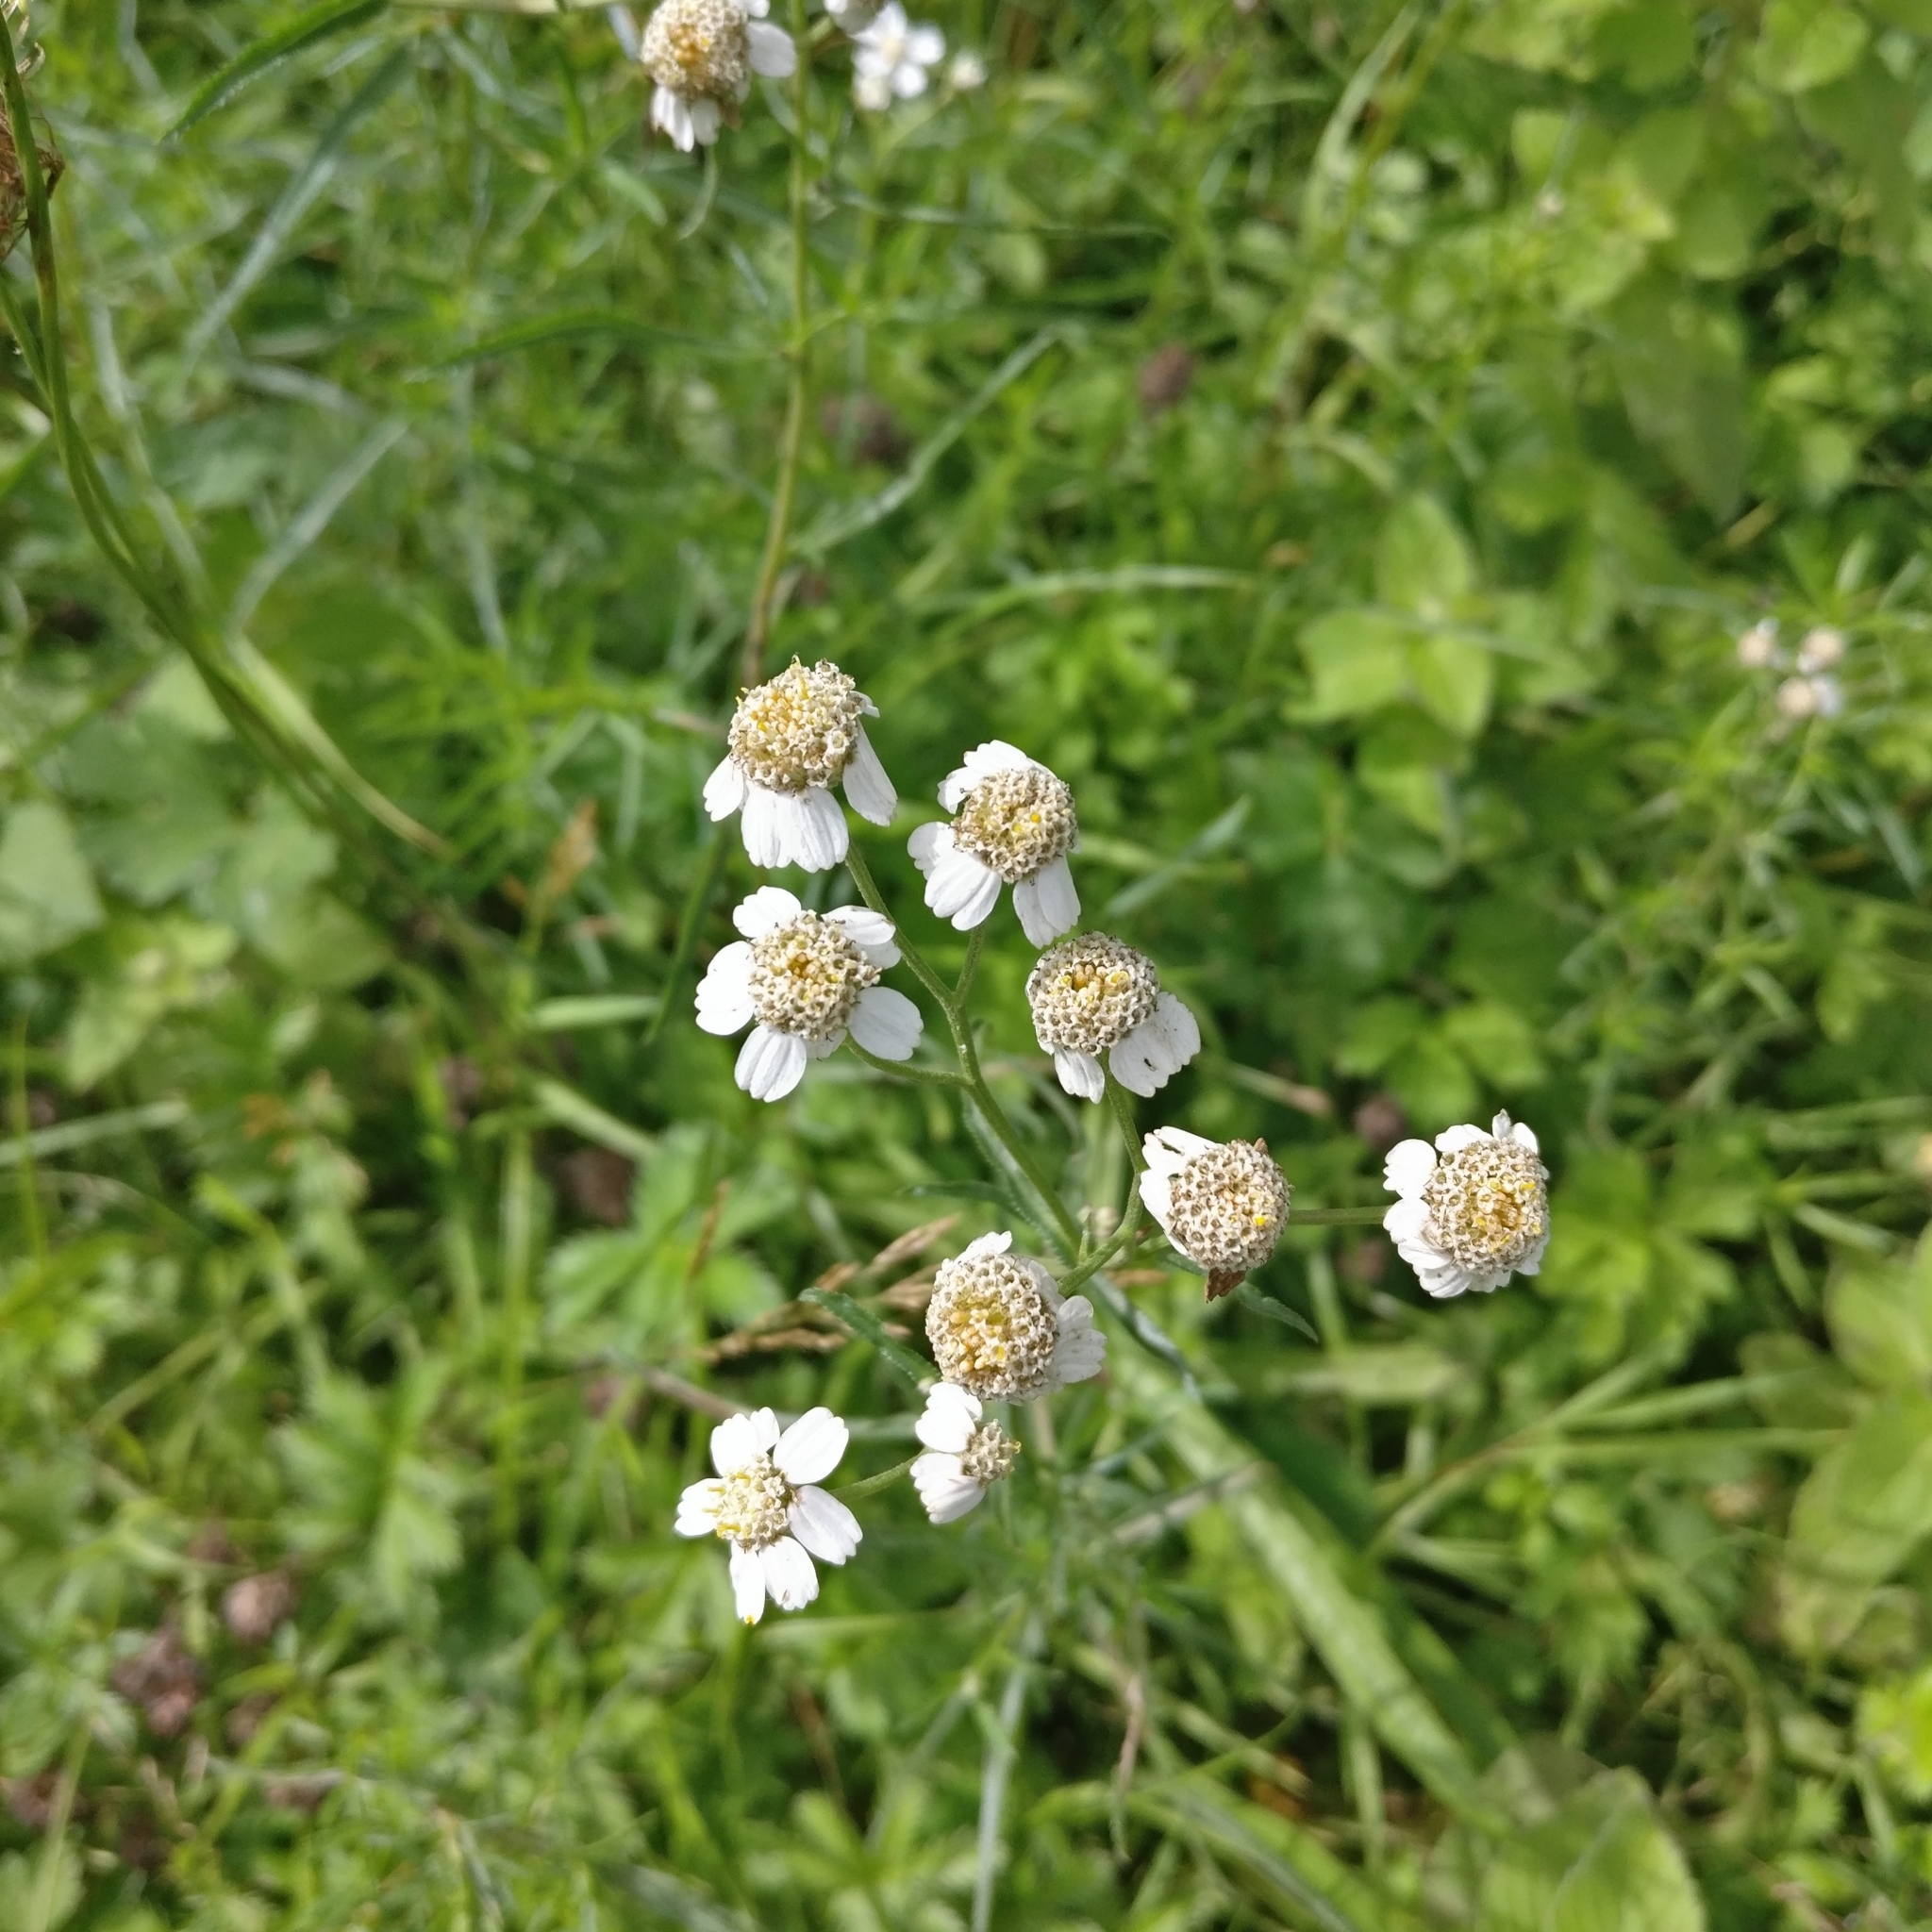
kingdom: Plantae
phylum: Tracheophyta
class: Magnoliopsida
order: Asterales
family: Asteraceae
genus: Achillea
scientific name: Achillea ptarmica
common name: Sneezeweed
